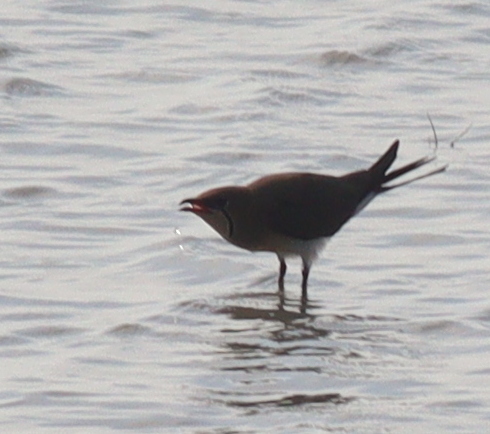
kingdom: Animalia
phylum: Chordata
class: Aves
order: Charadriiformes
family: Glareolidae
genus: Glareola
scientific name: Glareola pratincola
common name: Collared pratincole
